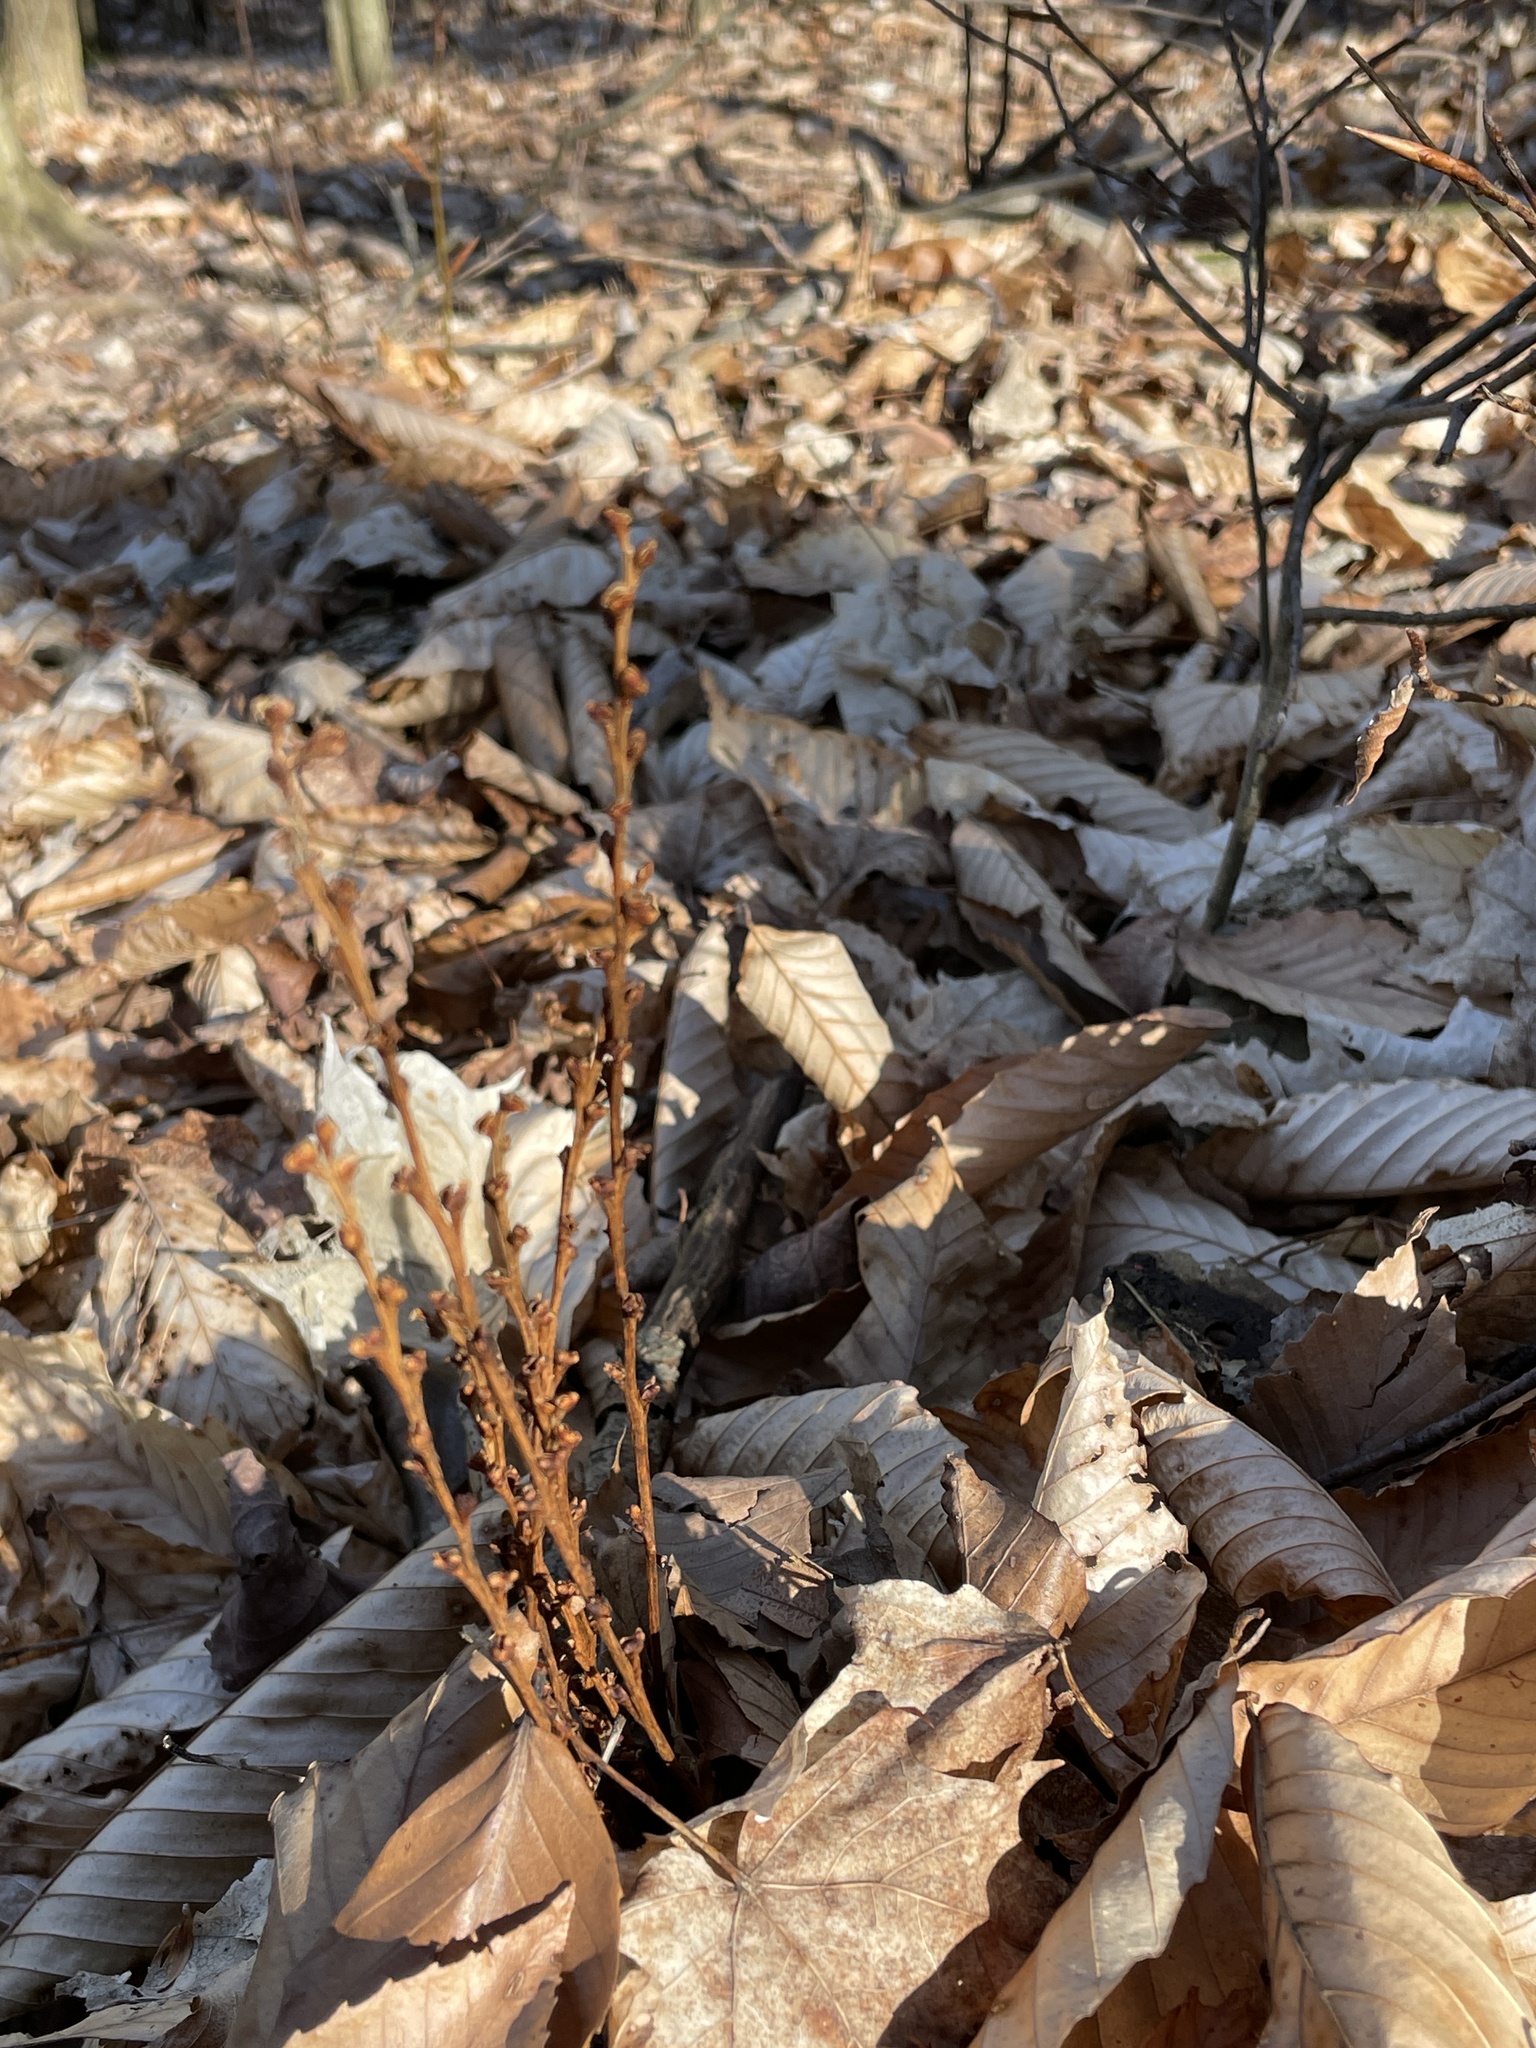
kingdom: Plantae
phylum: Tracheophyta
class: Magnoliopsida
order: Lamiales
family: Orobanchaceae
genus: Epifagus
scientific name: Epifagus virginiana
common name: Beechdrops
